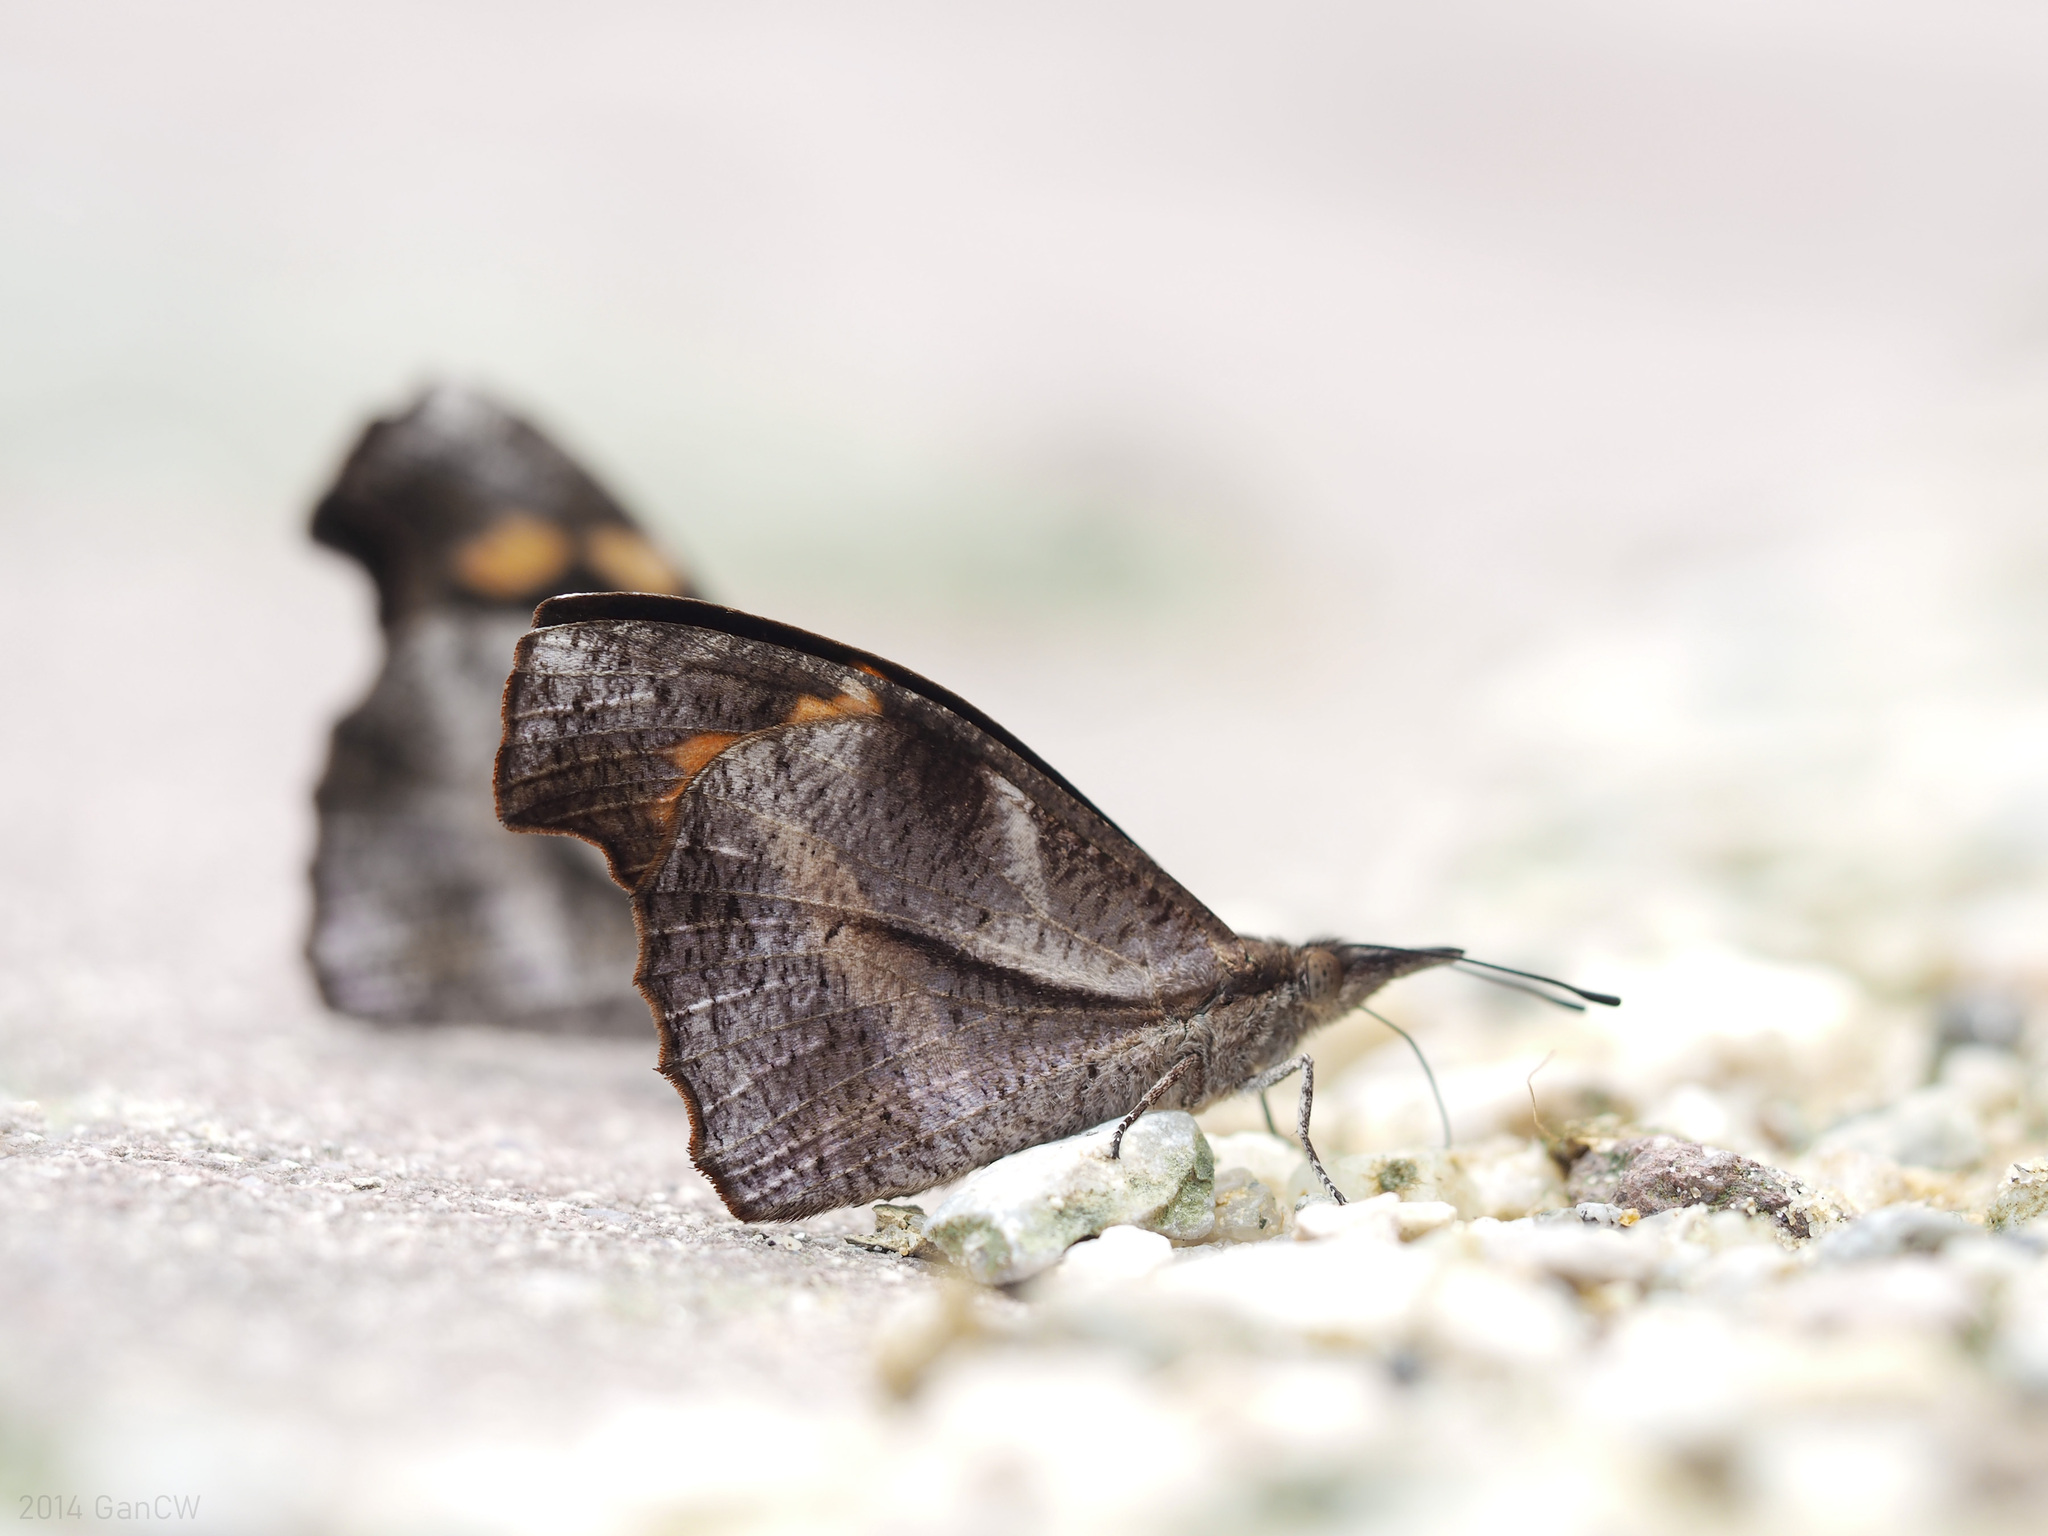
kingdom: Animalia
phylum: Arthropoda
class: Insecta
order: Lepidoptera
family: Nymphalidae
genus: Libythea
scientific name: Libythea myrrha
